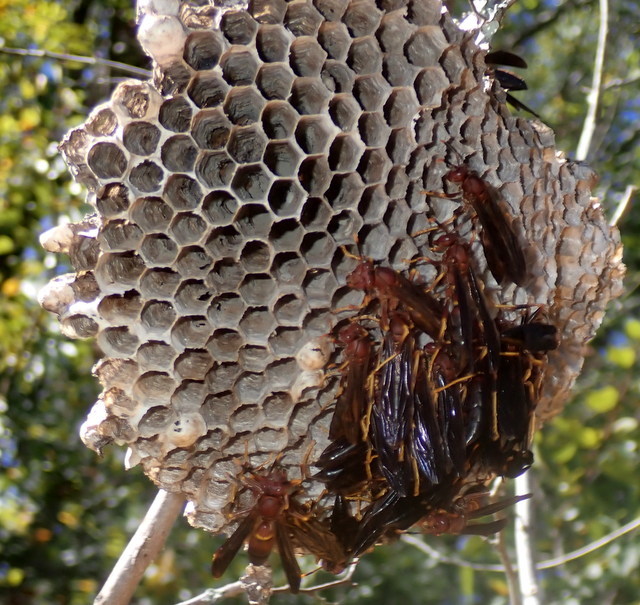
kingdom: Animalia
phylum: Arthropoda
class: Insecta
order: Hymenoptera
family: Eumenidae
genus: Polistes
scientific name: Polistes annularis
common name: Ringed paper wasp
